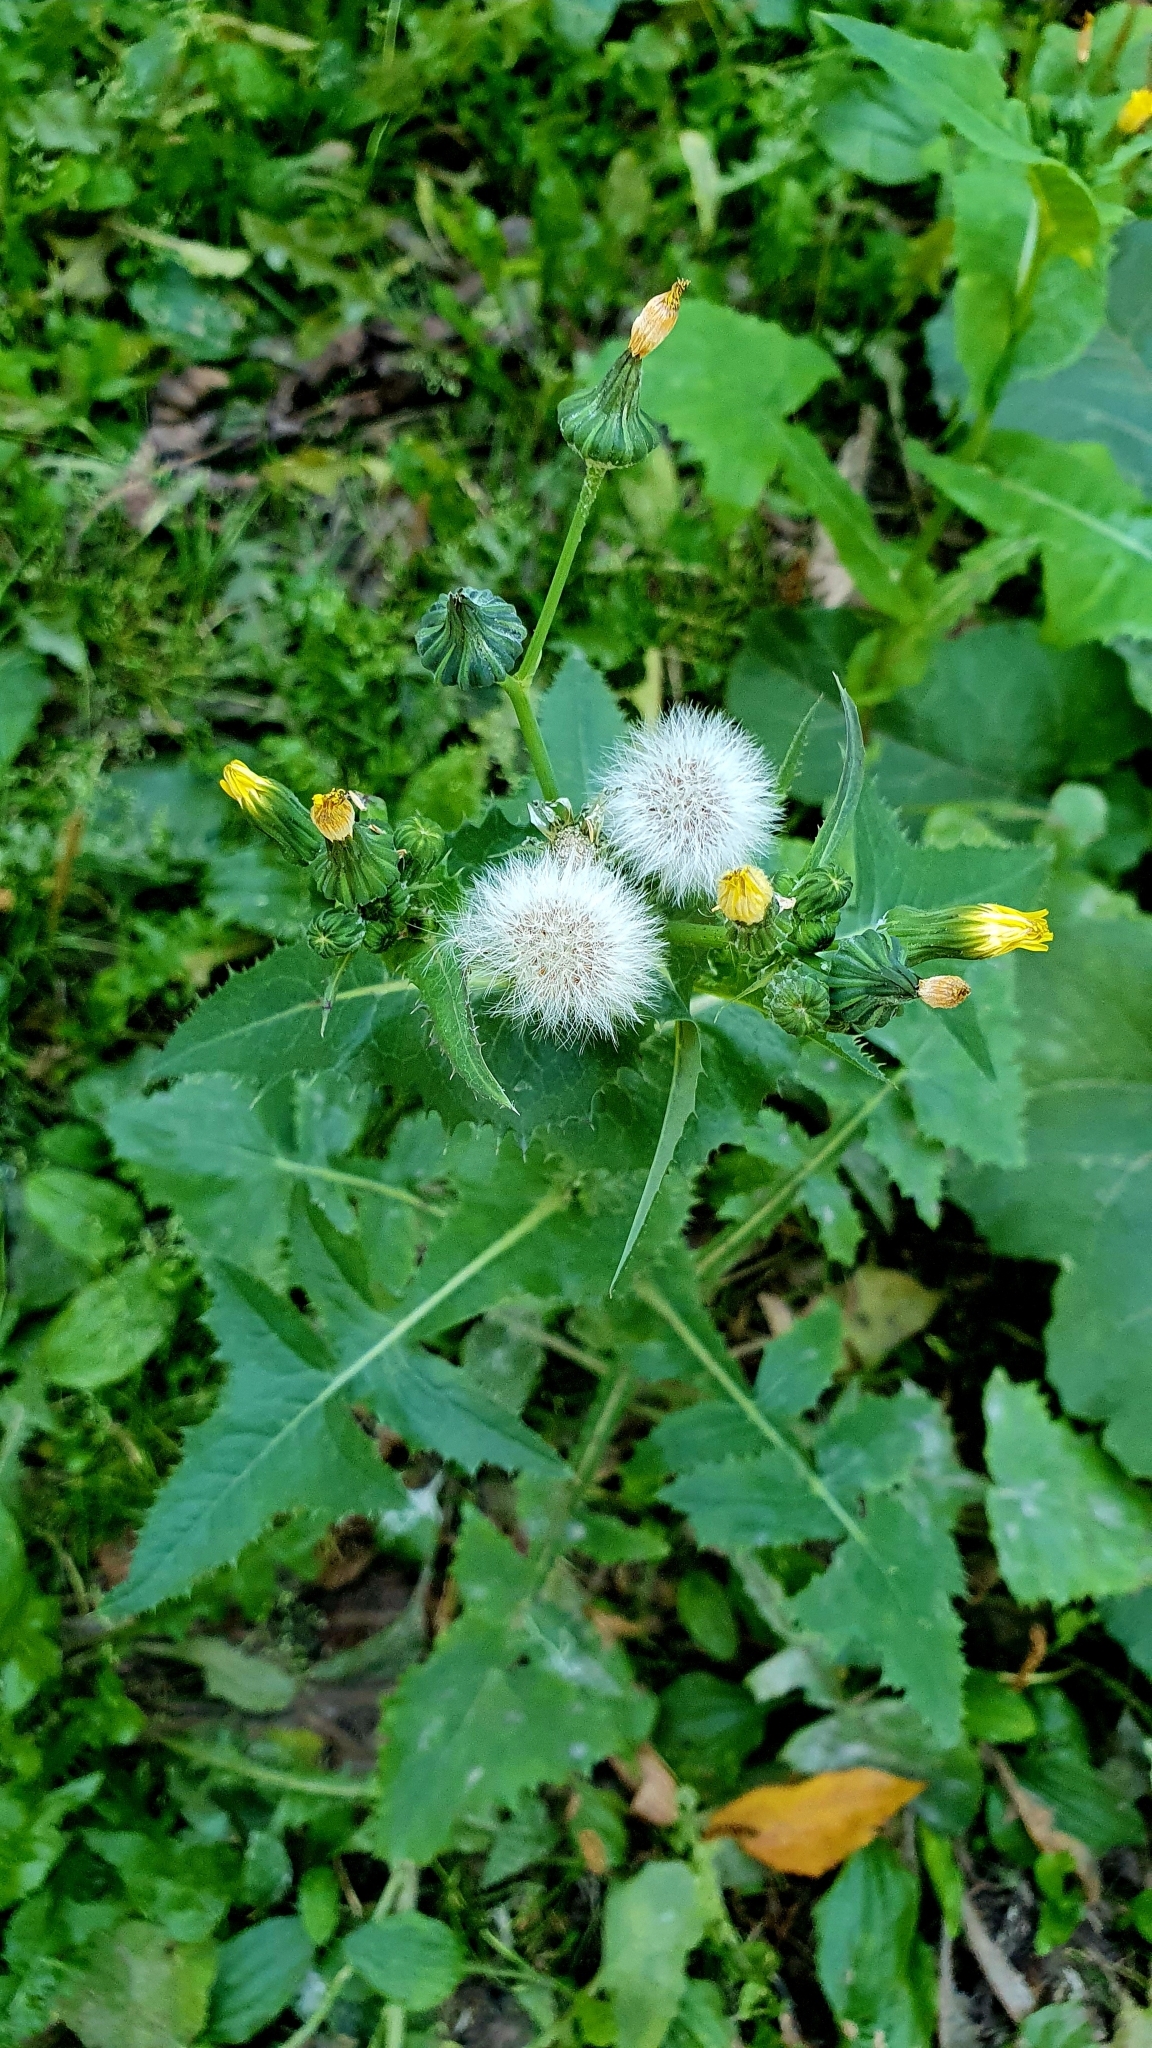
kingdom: Plantae
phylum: Tracheophyta
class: Magnoliopsida
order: Asterales
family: Asteraceae
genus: Sonchus
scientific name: Sonchus oleraceus
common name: Common sowthistle
